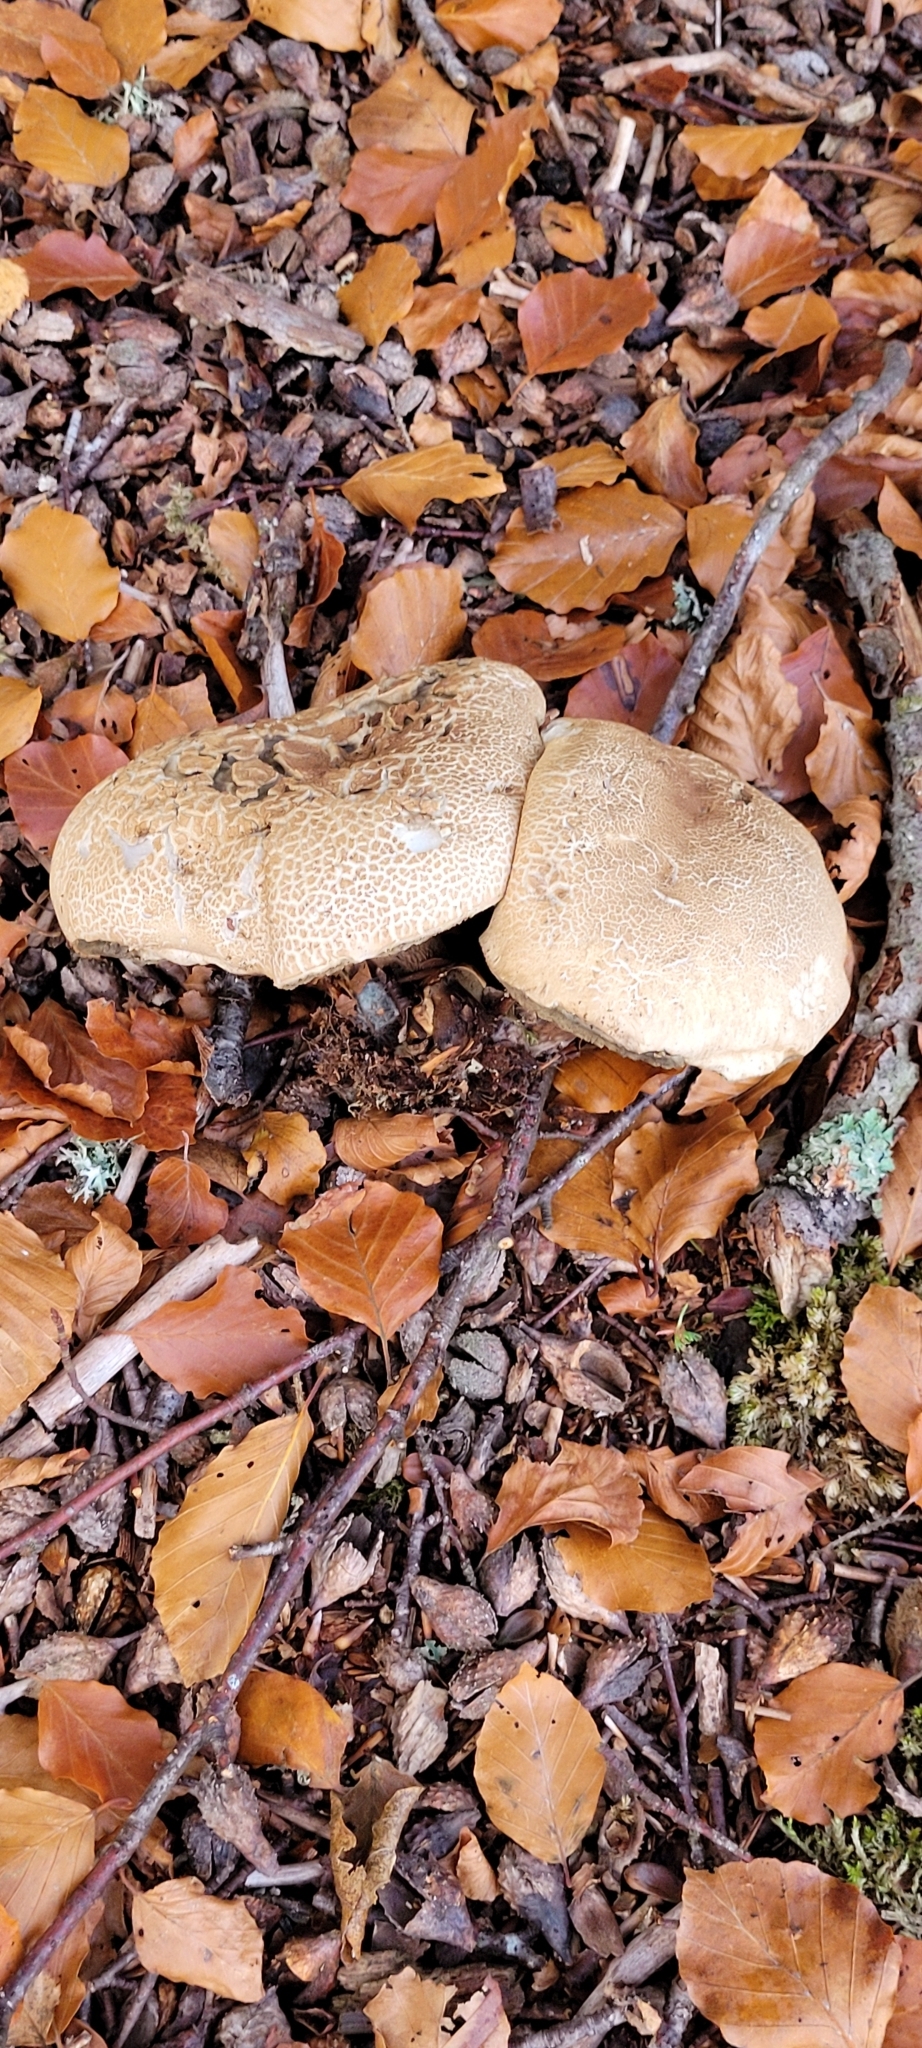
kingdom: Fungi
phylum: Basidiomycota
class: Agaricomycetes
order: Boletales
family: Boletaceae
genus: Caloboletus
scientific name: Caloboletus calopus
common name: Bitter beech bolete
